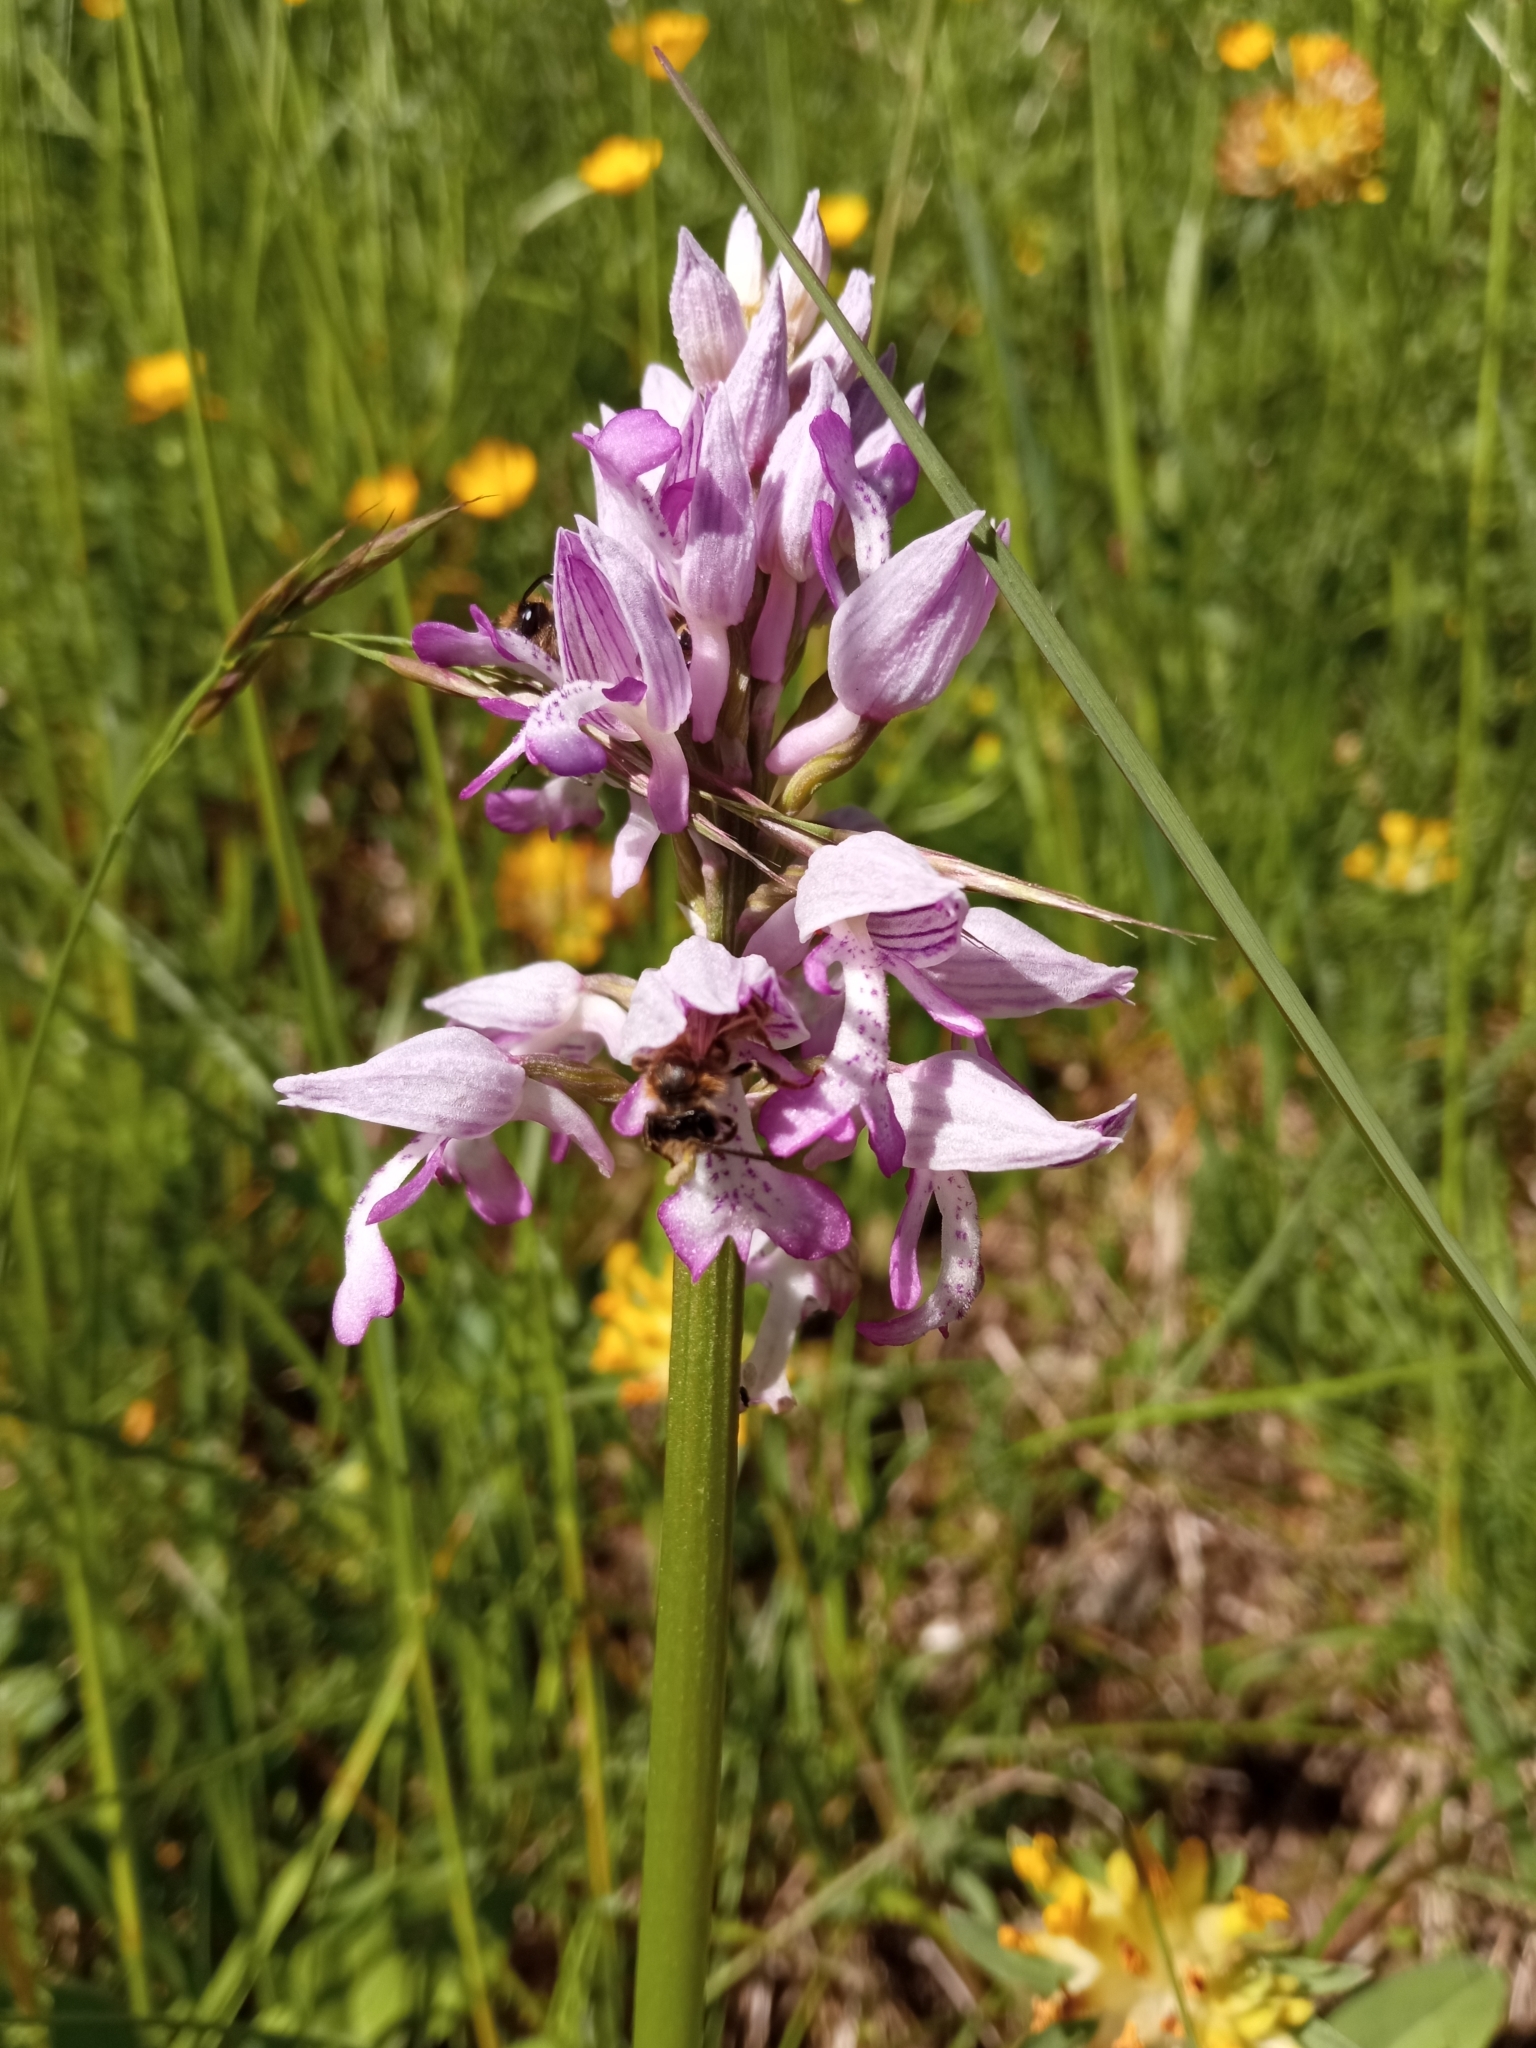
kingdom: Plantae
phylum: Tracheophyta
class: Liliopsida
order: Asparagales
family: Orchidaceae
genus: Orchis
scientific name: Orchis militaris
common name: Military orchid
